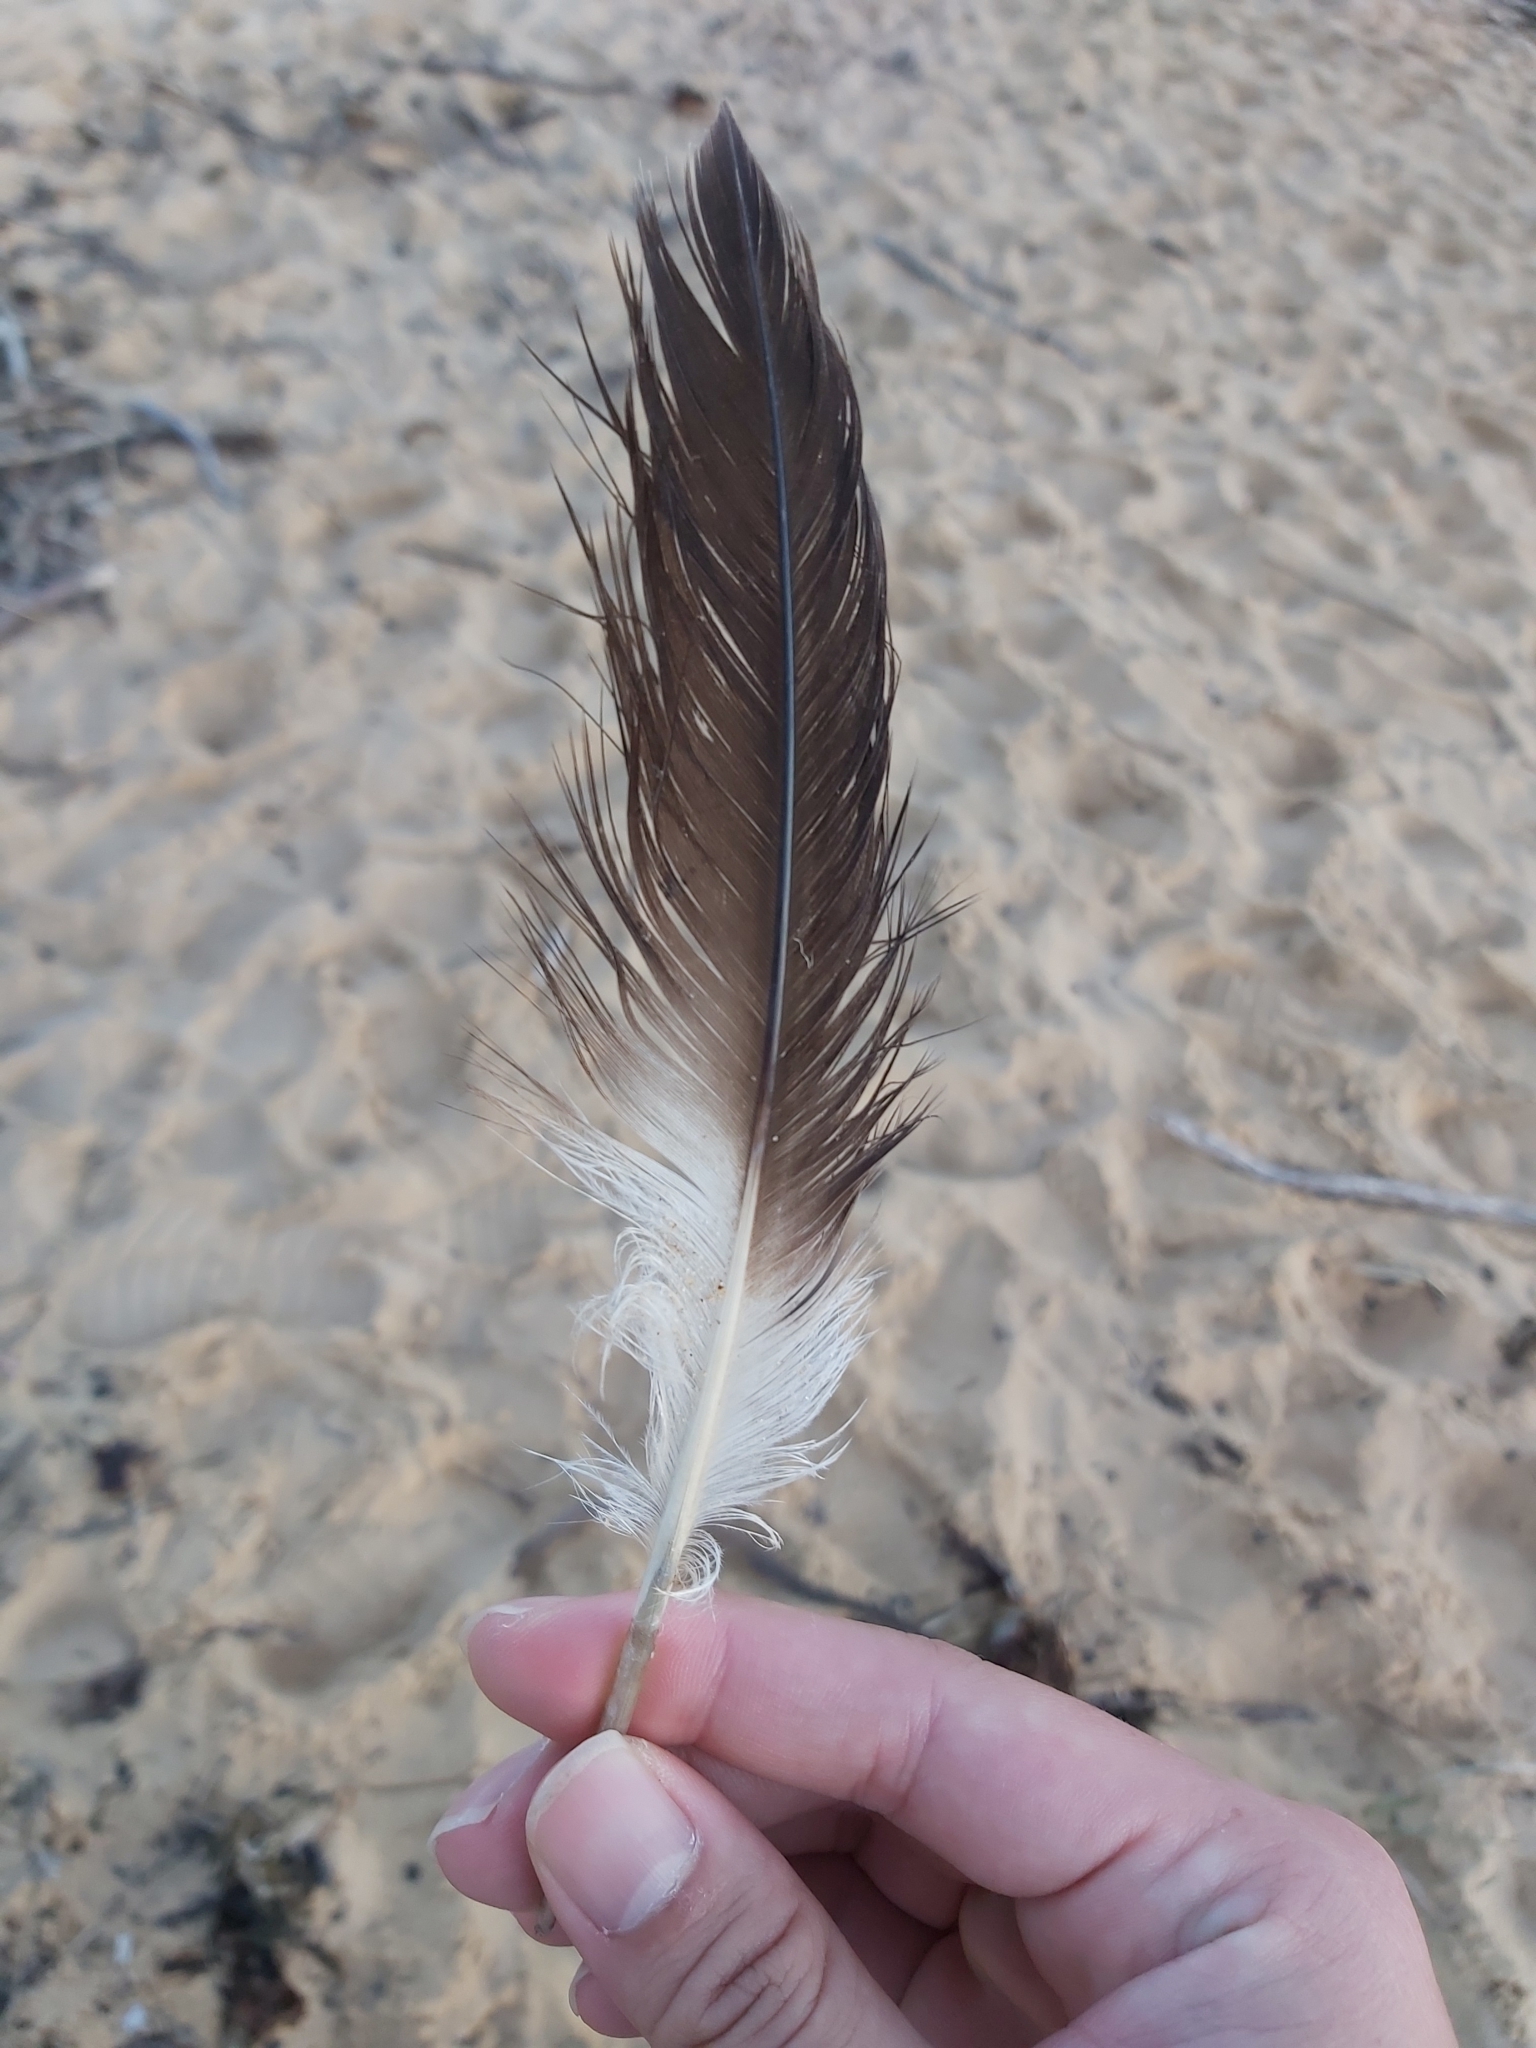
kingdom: Animalia
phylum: Chordata
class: Aves
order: Suliformes
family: Sulidae
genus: Morus
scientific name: Morus serrator
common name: Australasian gannet
